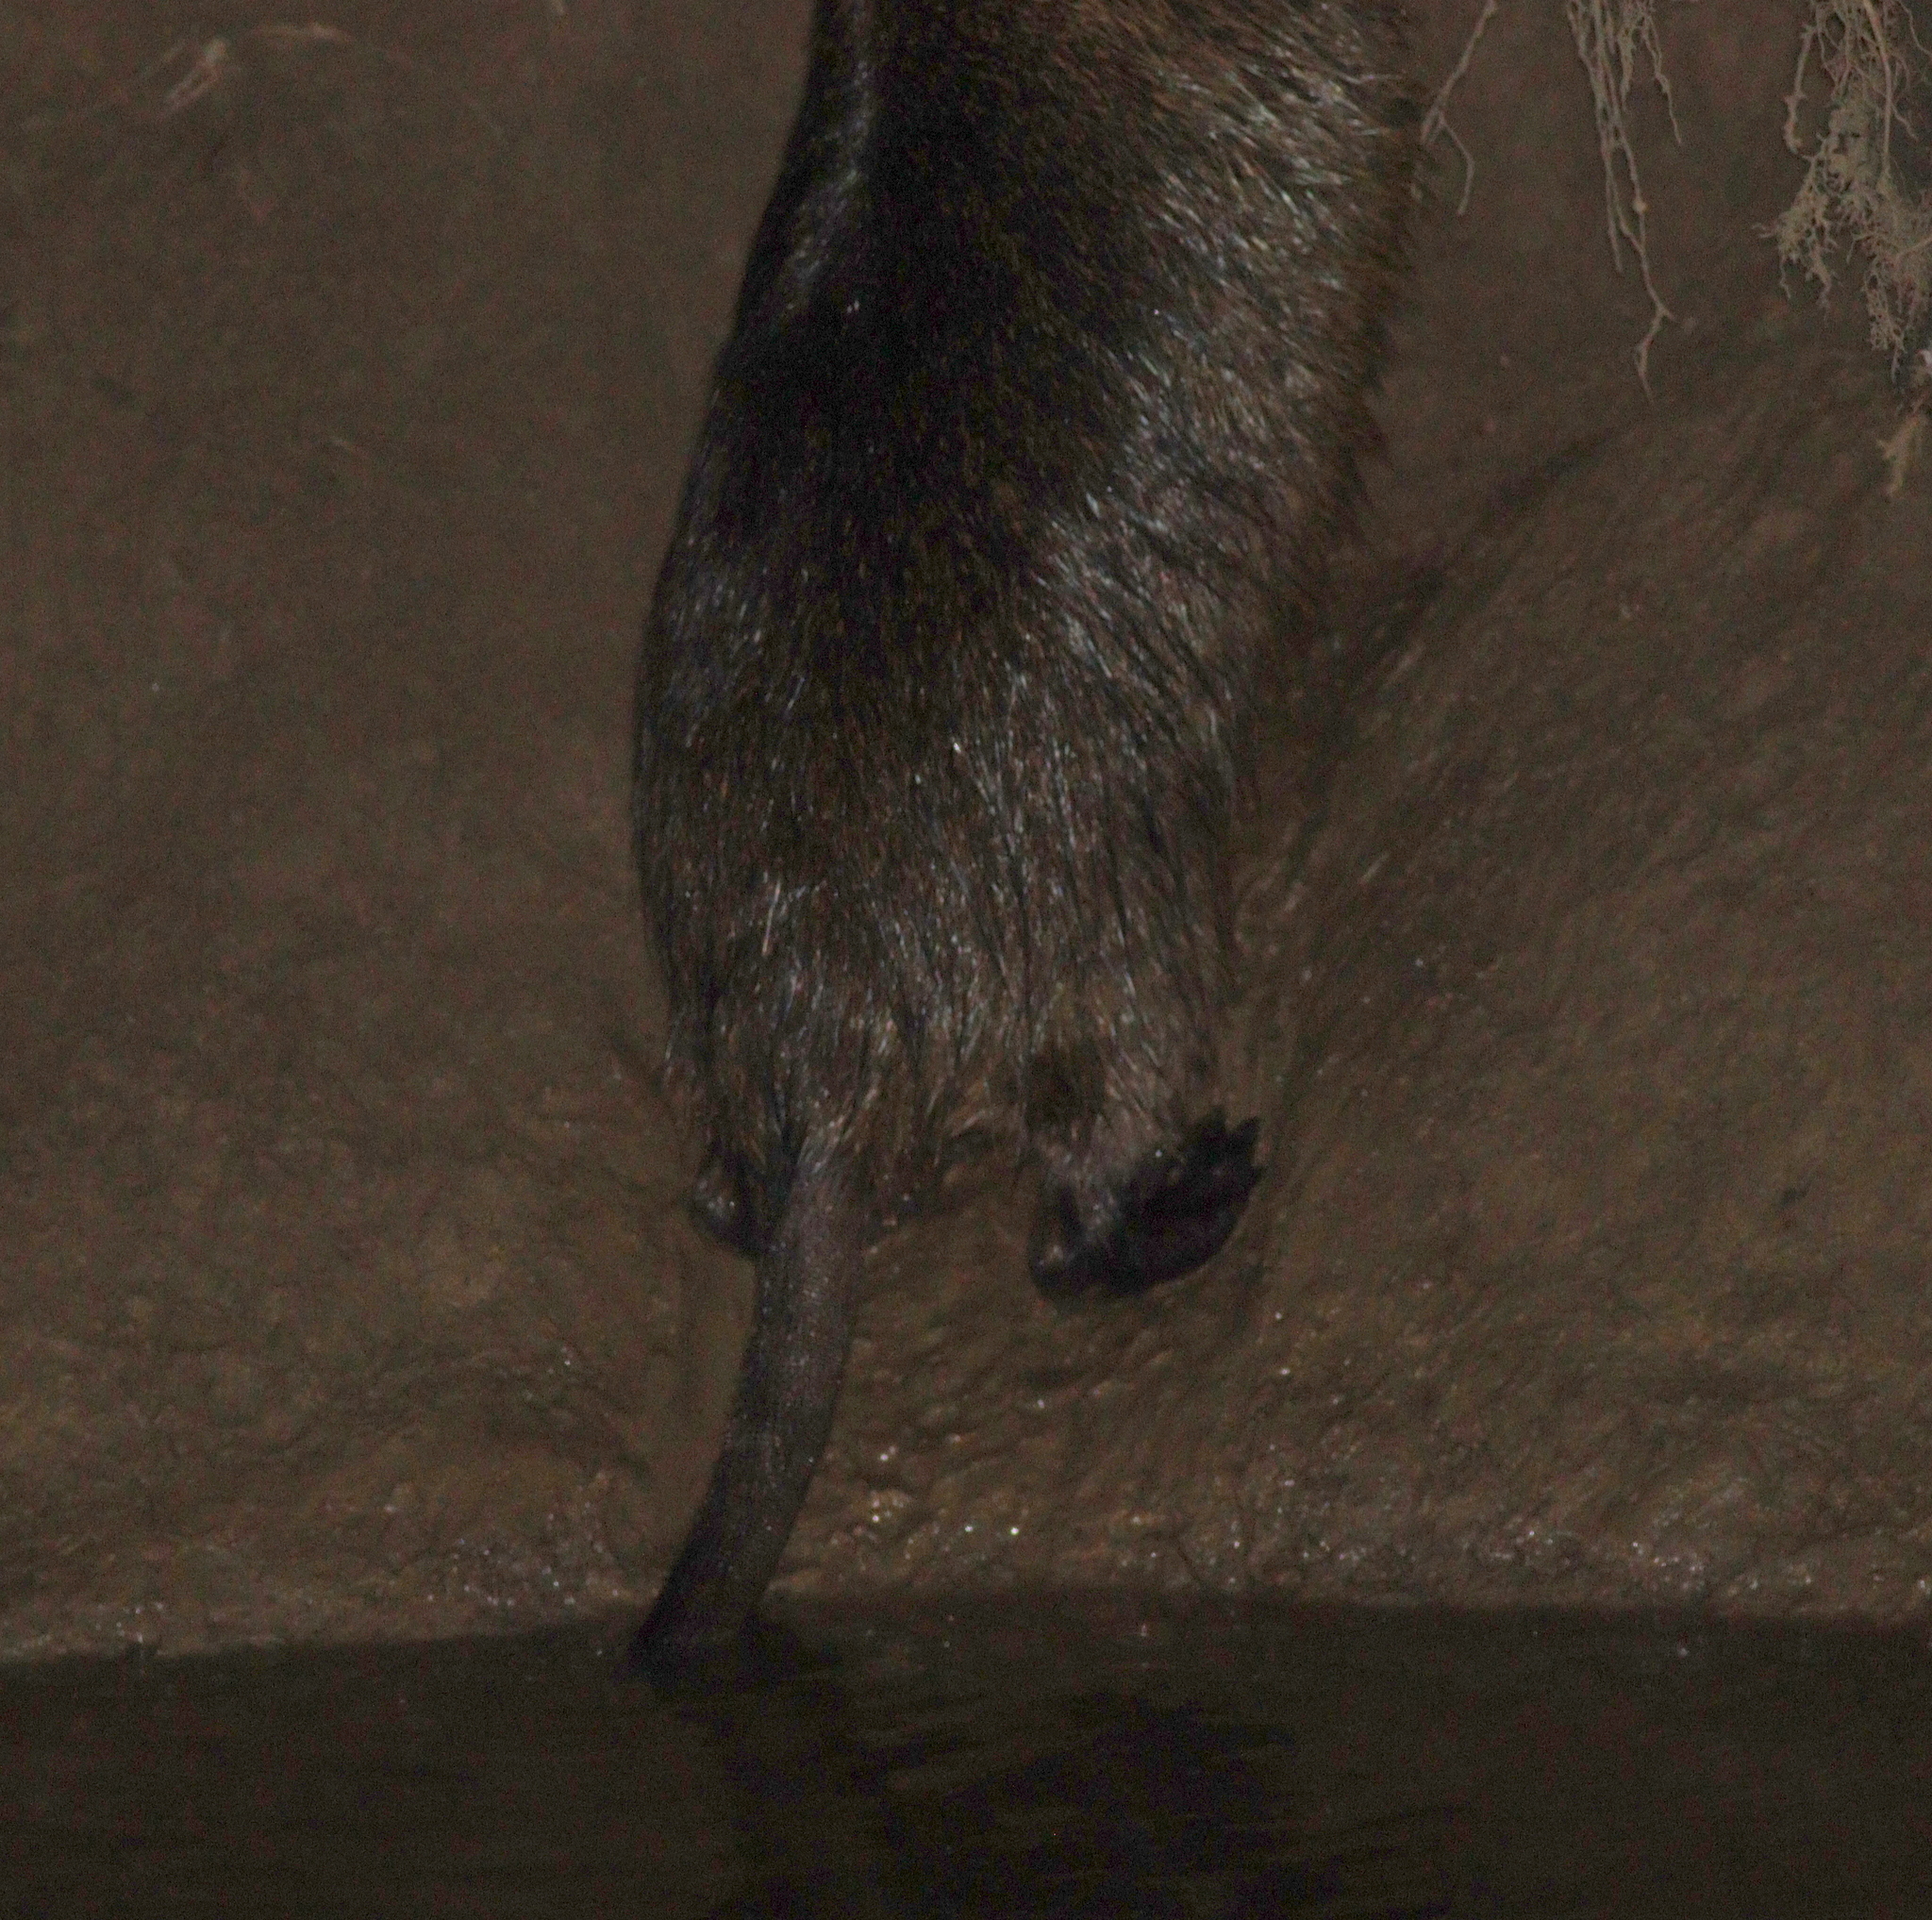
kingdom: Animalia
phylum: Chordata
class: Mammalia
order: Rodentia
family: Myocastoridae
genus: Myocastor
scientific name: Myocastor coypus
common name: Coypu
